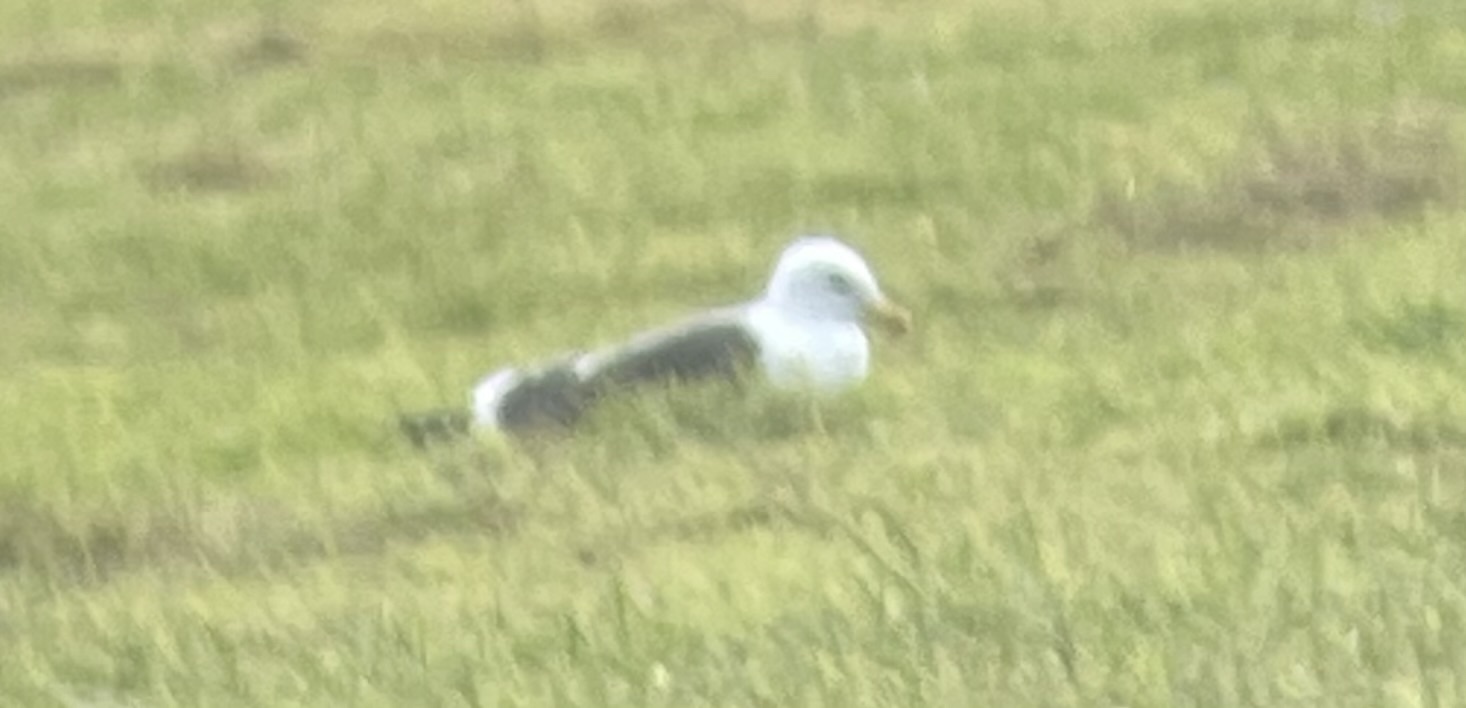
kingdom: Animalia
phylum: Chordata
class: Aves
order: Charadriiformes
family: Laridae
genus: Larus
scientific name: Larus fuscus
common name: Lesser black-backed gull
